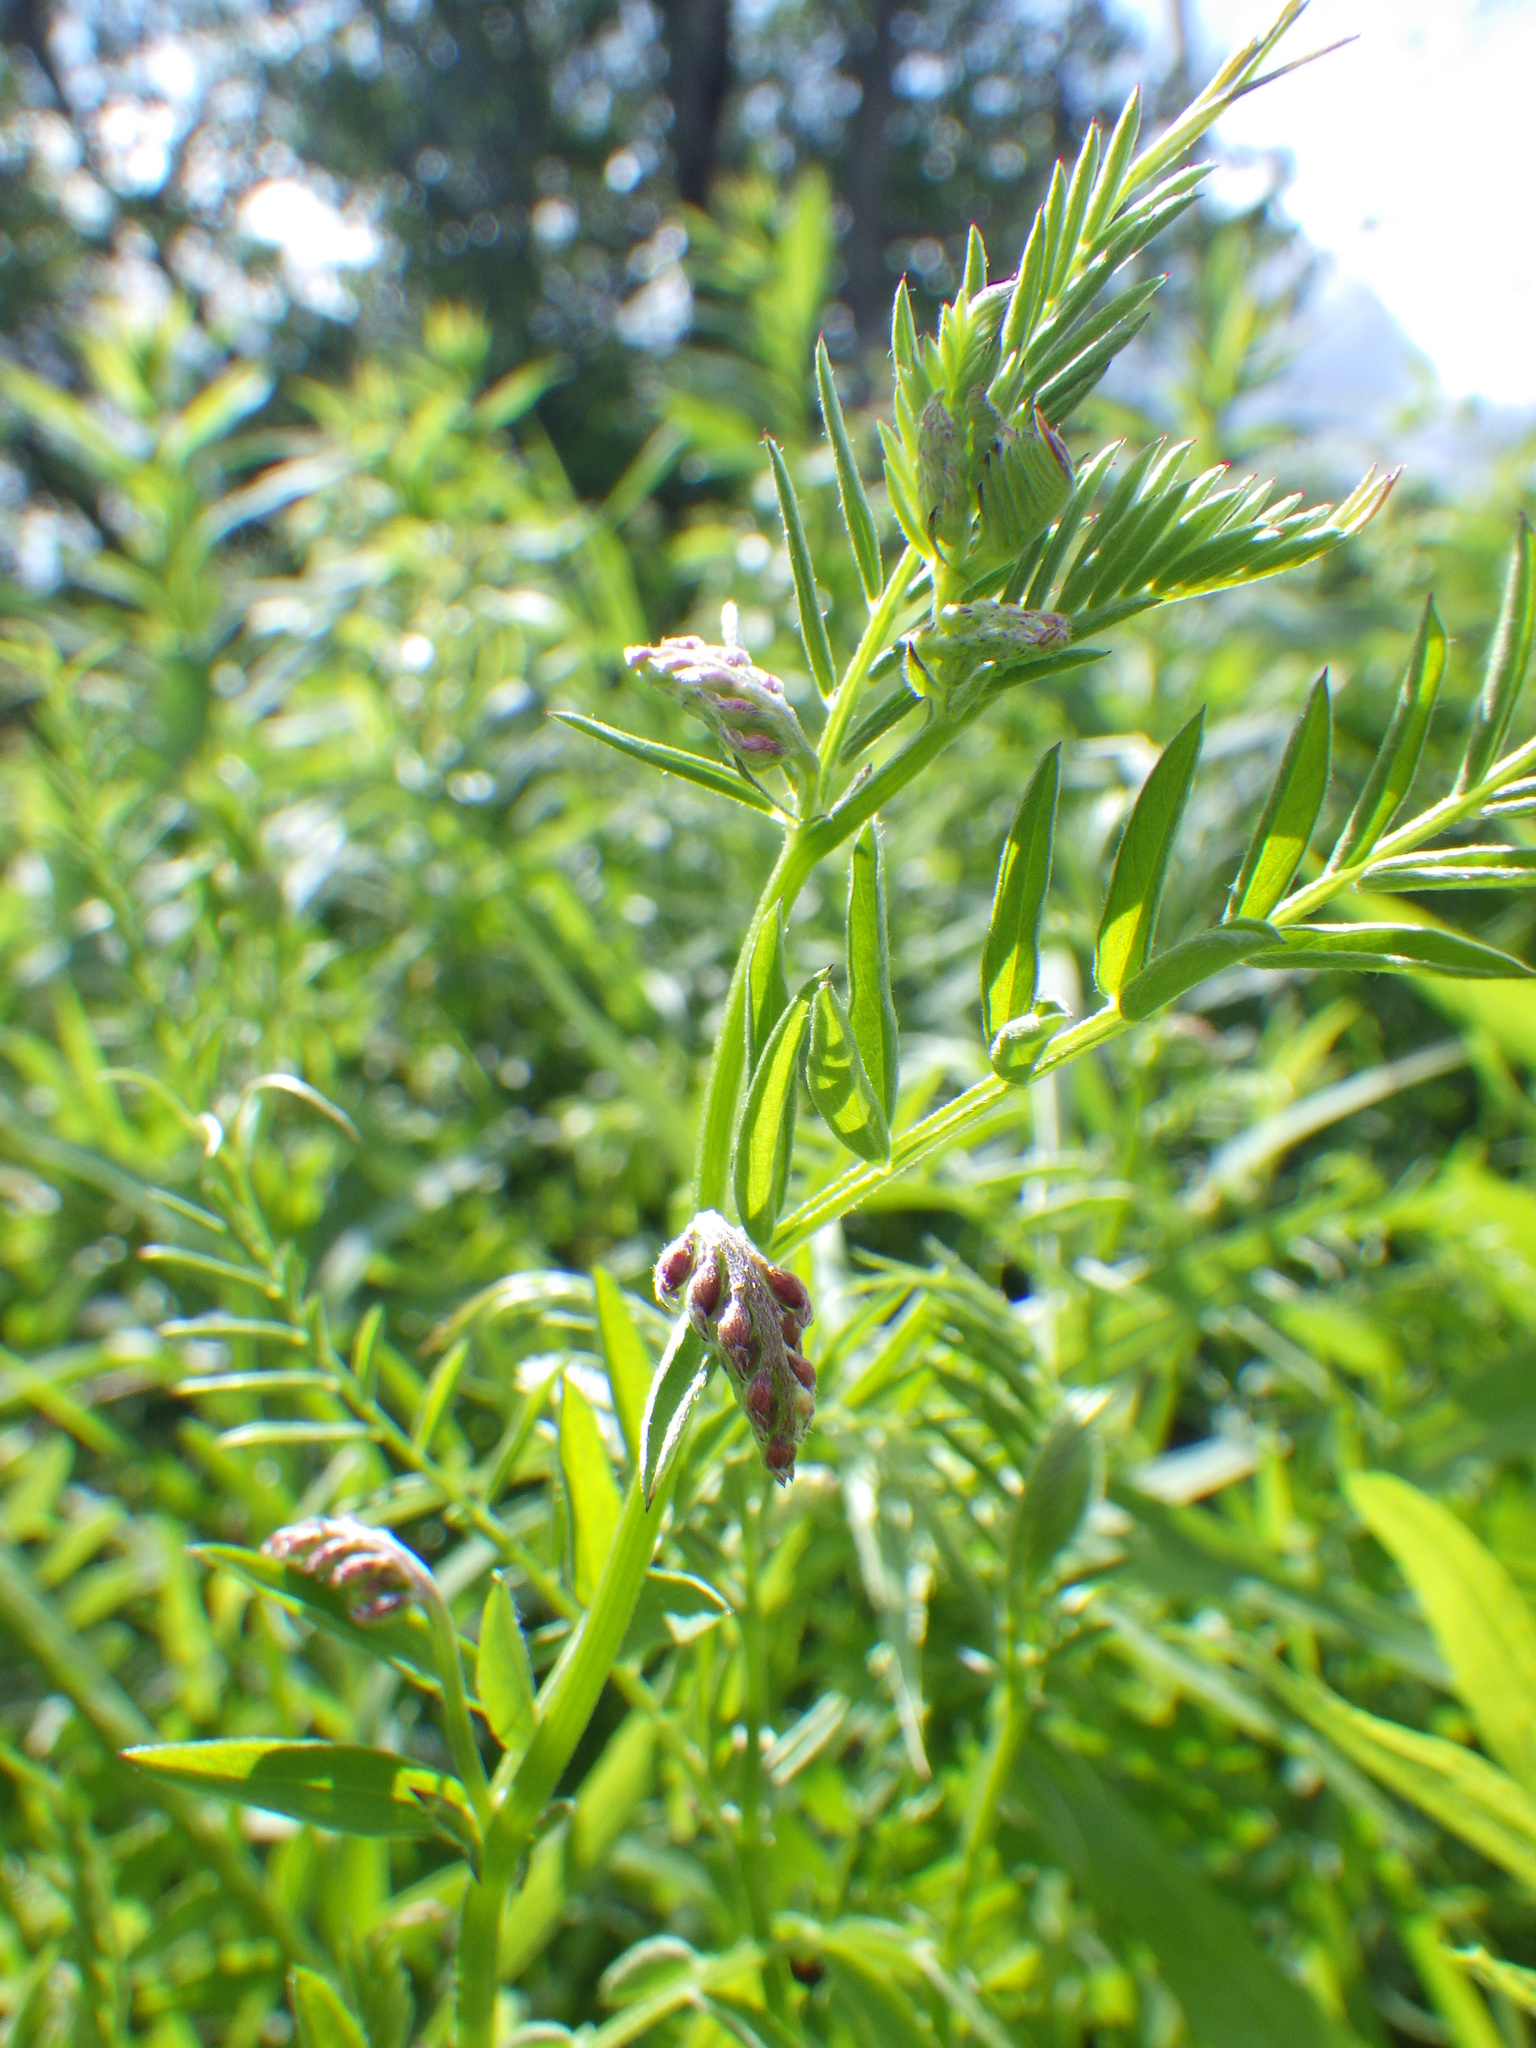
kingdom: Plantae
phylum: Tracheophyta
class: Magnoliopsida
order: Fabales
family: Fabaceae
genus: Vicia
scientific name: Vicia cracca
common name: Bird vetch
